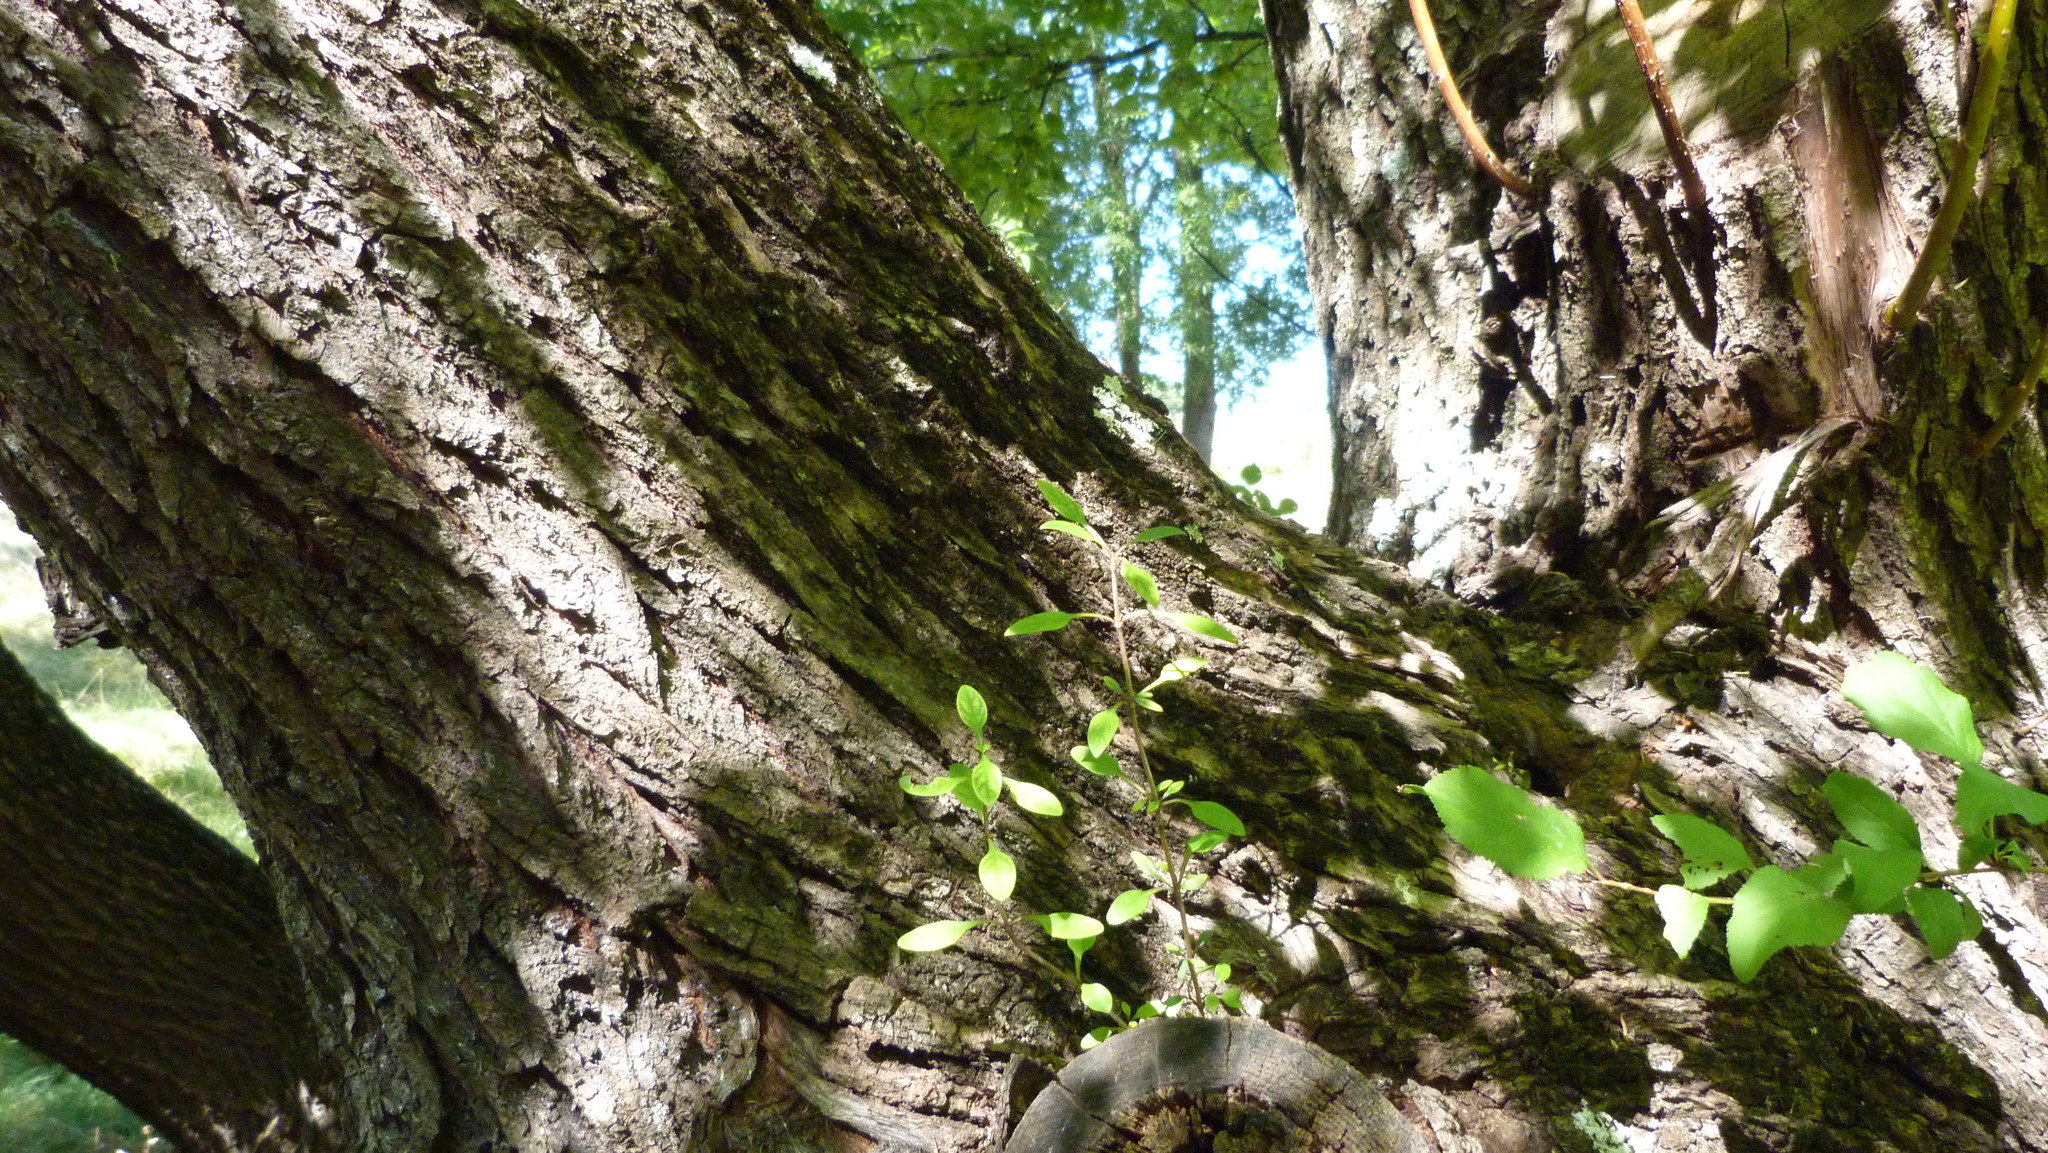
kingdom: Plantae
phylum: Tracheophyta
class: Magnoliopsida
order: Gentianales
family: Rubiaceae
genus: Coprosma
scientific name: Coprosma propinqua
